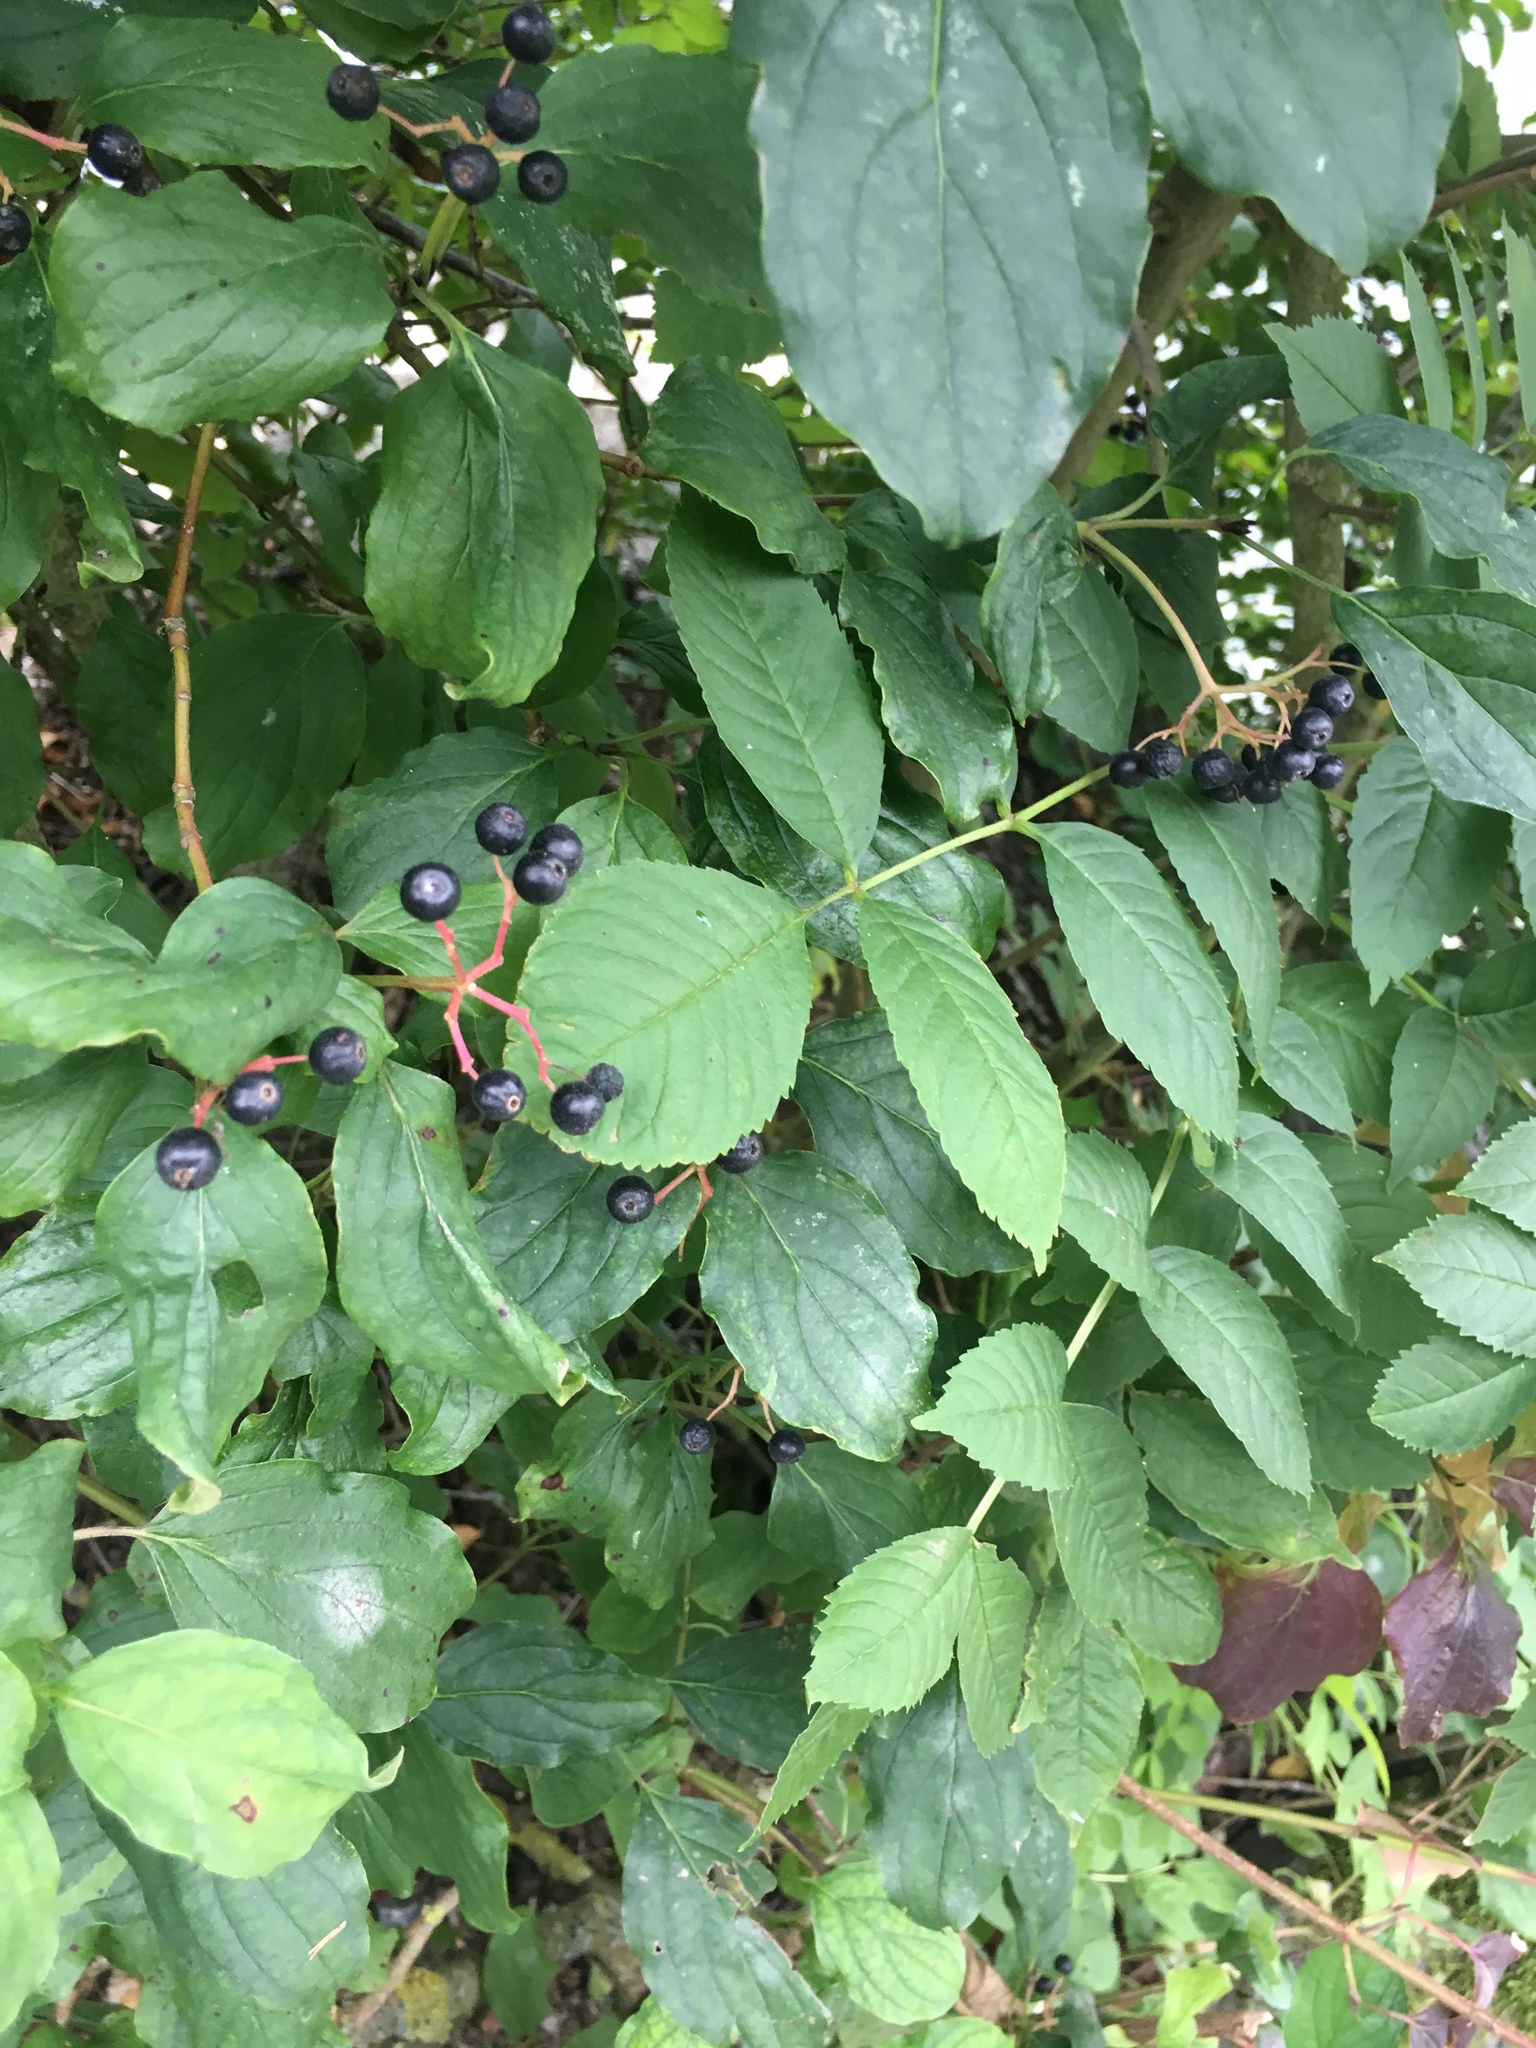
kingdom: Plantae
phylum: Tracheophyta
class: Magnoliopsida
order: Cornales
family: Cornaceae
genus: Cornus
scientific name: Cornus sanguinea
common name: Dogwood
